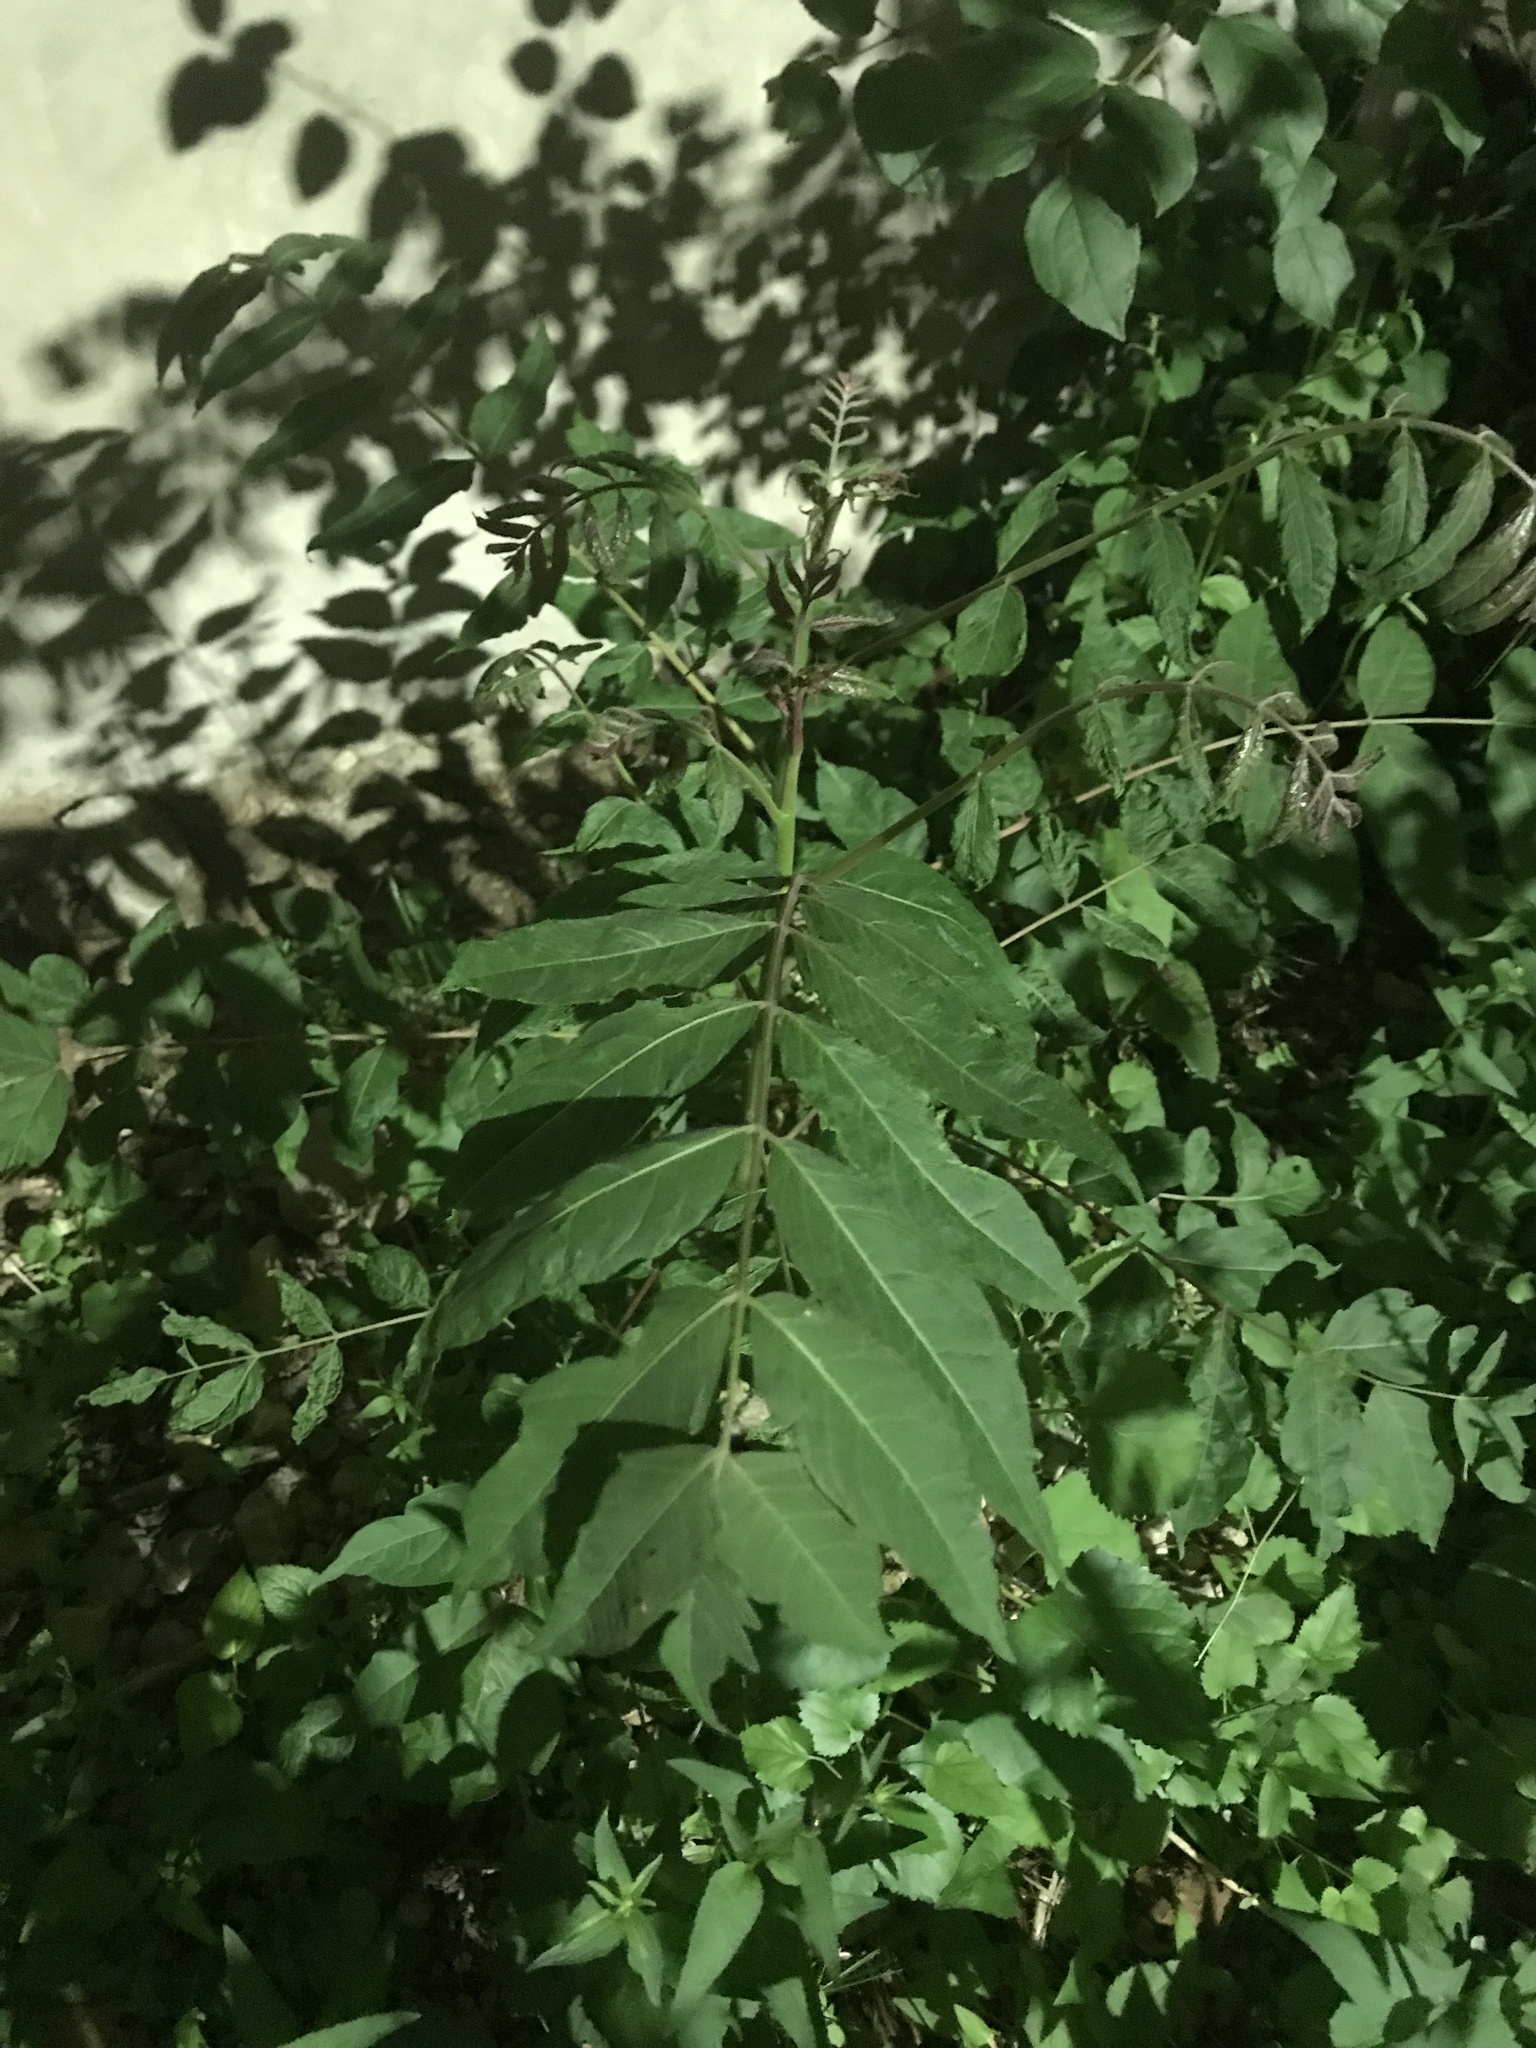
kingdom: Plantae
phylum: Tracheophyta
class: Magnoliopsida
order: Sapindales
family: Simaroubaceae
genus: Ailanthus
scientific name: Ailanthus altissima
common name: Tree-of-heaven
